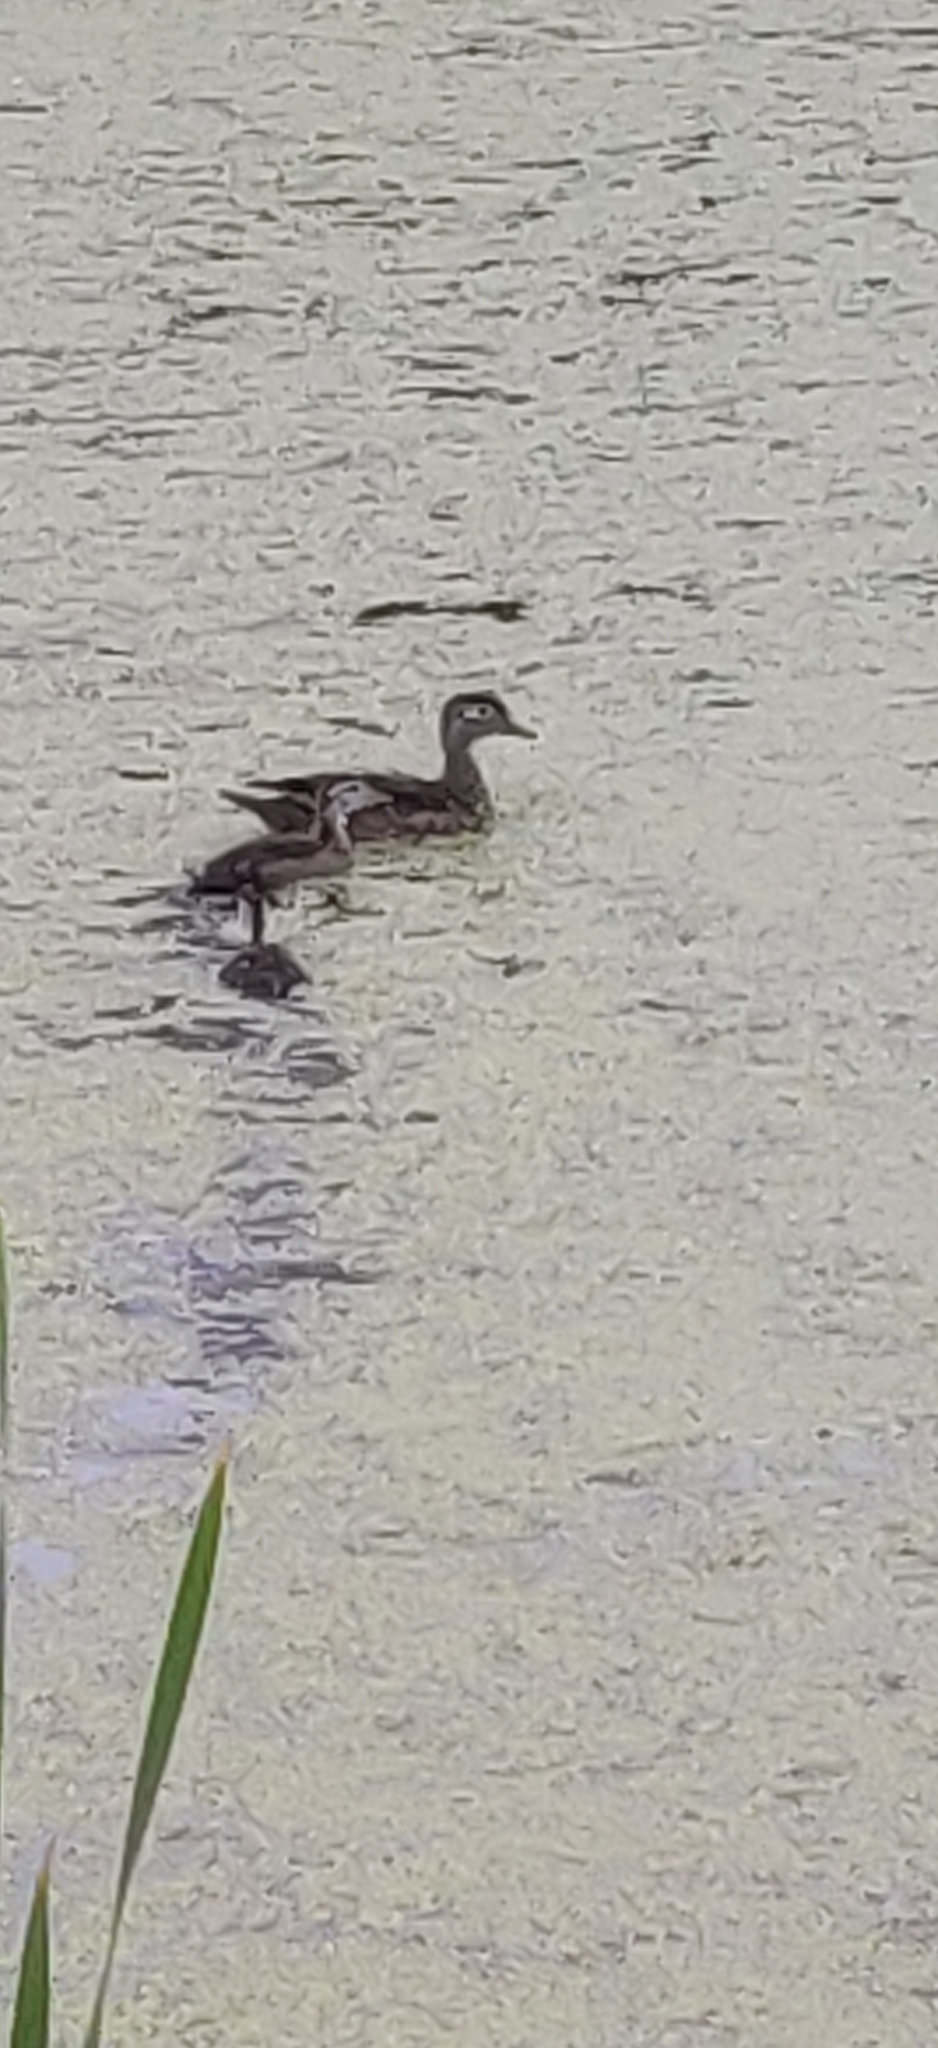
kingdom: Animalia
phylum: Chordata
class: Aves
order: Anseriformes
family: Anatidae
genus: Aix
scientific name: Aix sponsa
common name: Wood duck
